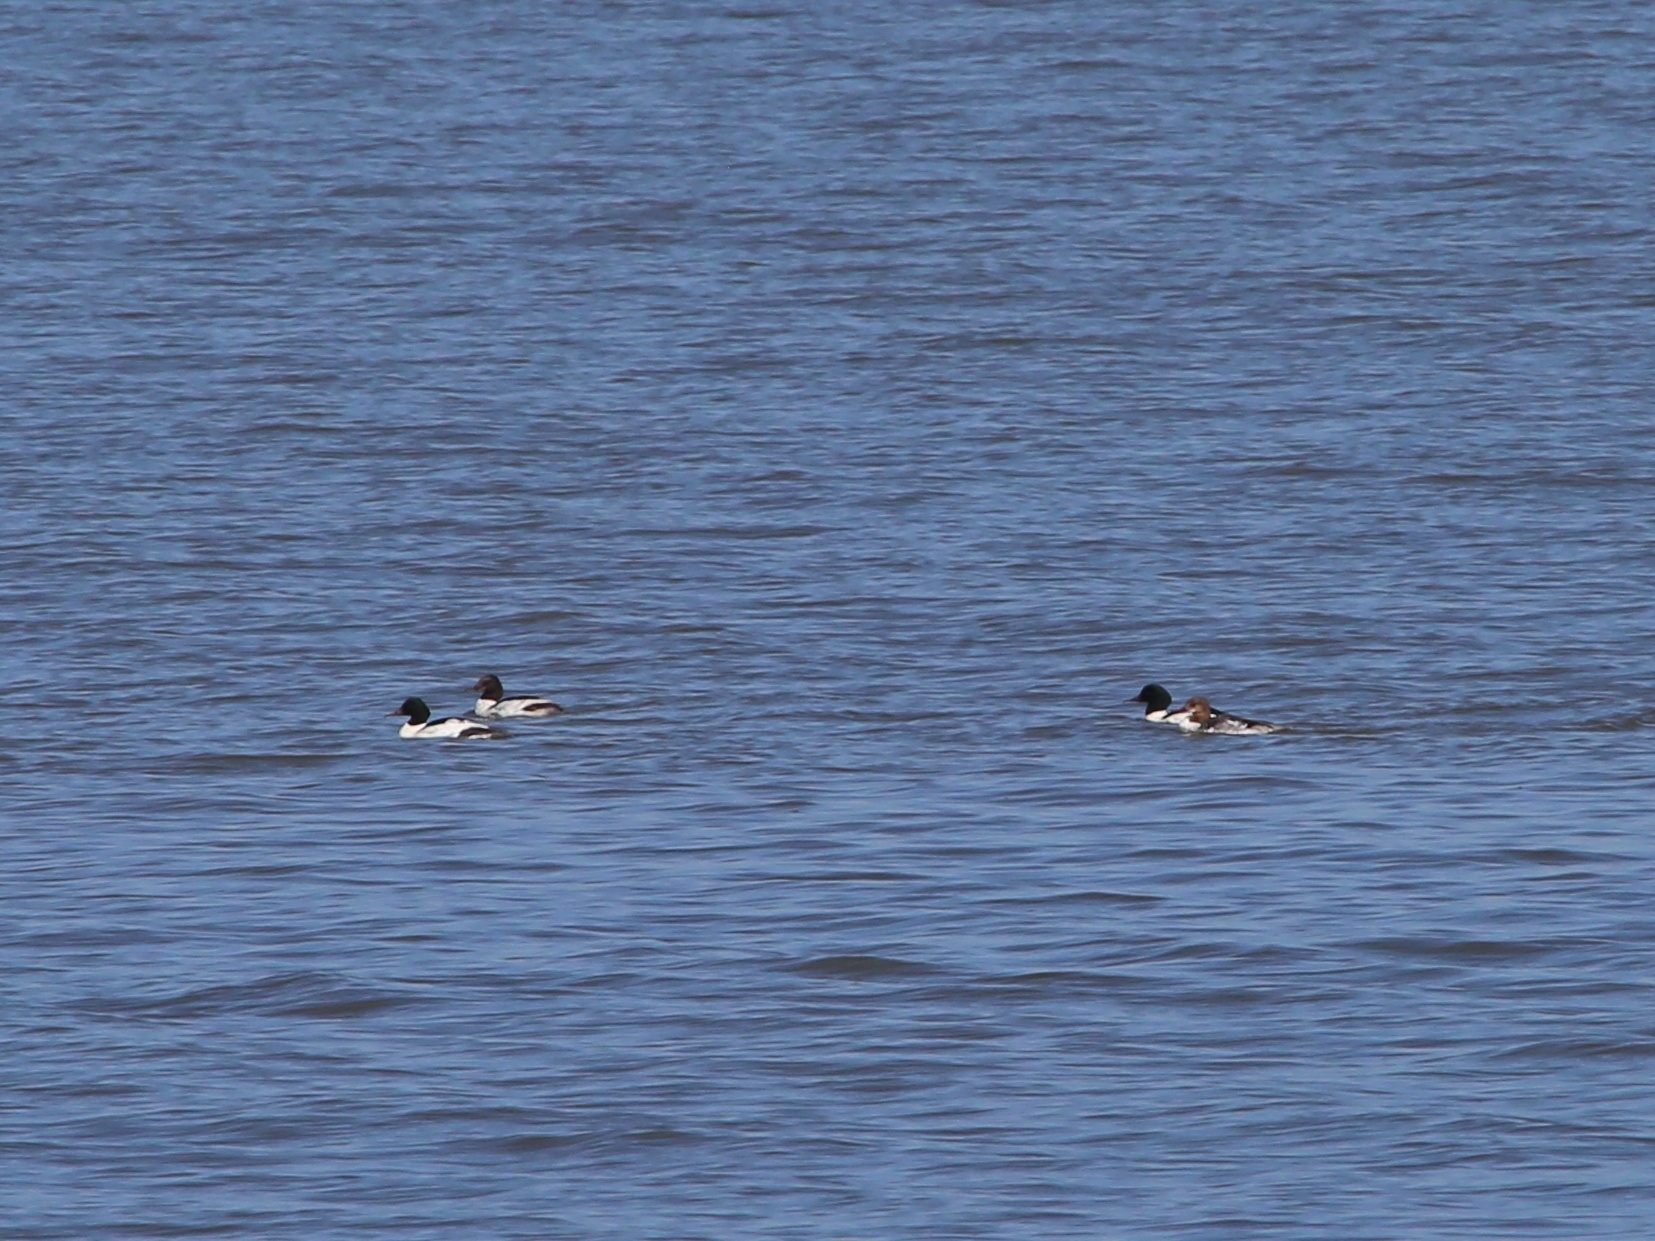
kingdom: Animalia
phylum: Chordata
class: Aves
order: Anseriformes
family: Anatidae
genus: Mergus
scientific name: Mergus merganser
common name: Common merganser
